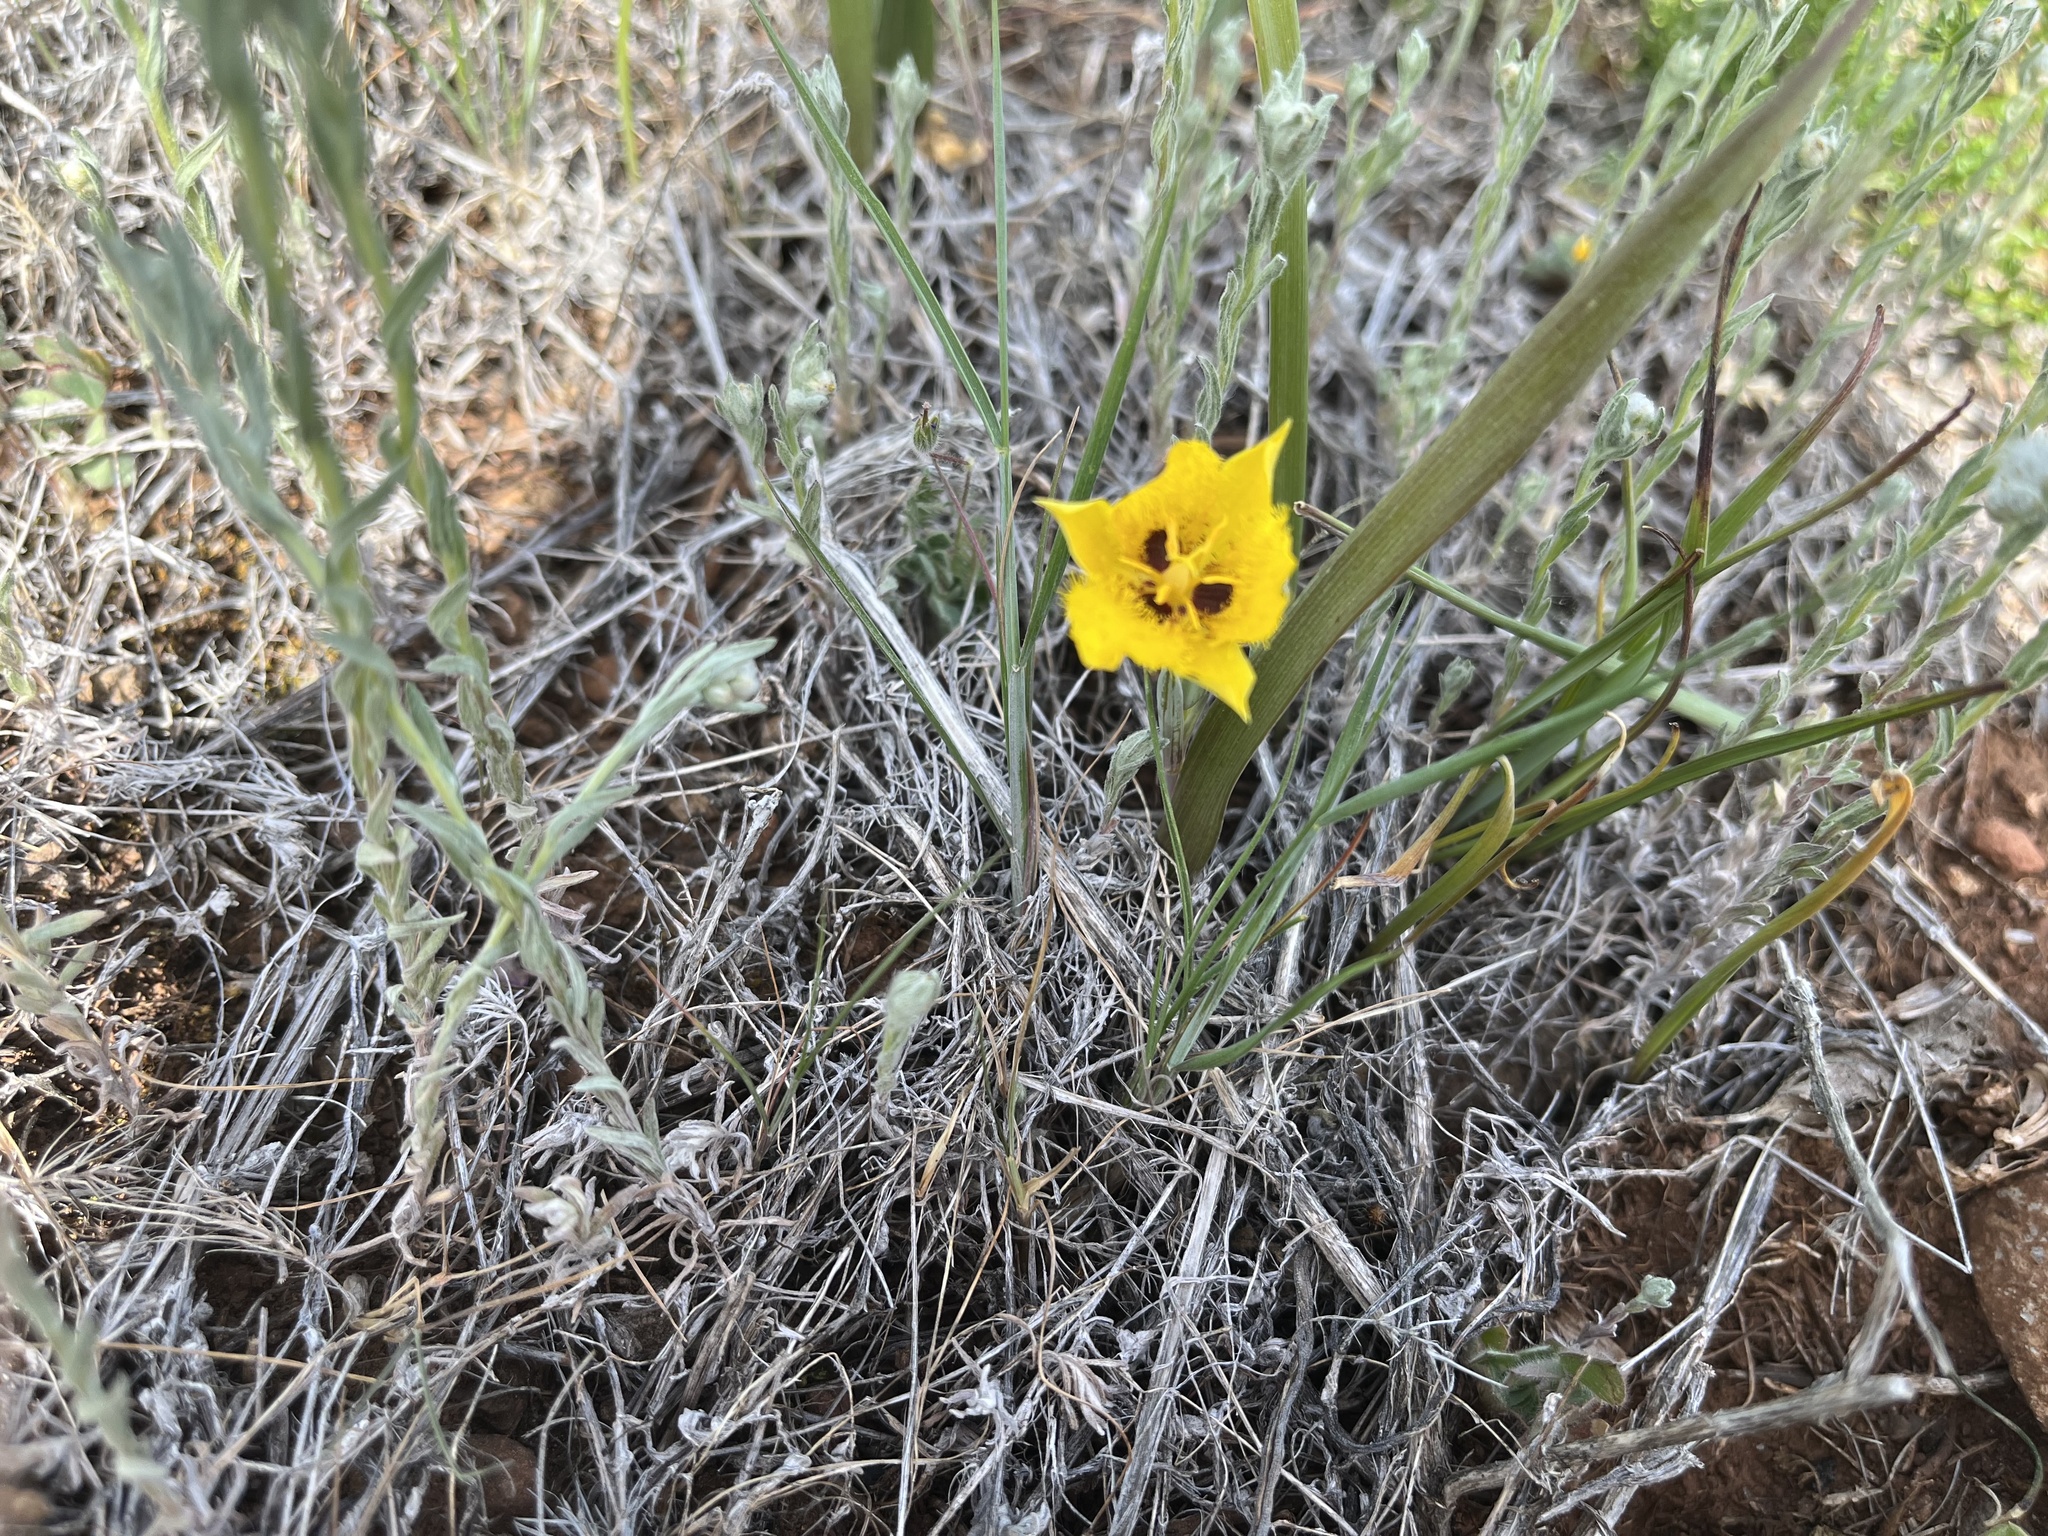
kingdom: Plantae
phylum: Tracheophyta
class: Liliopsida
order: Liliales
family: Liliaceae
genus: Calochortus
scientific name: Calochortus monophyllus
